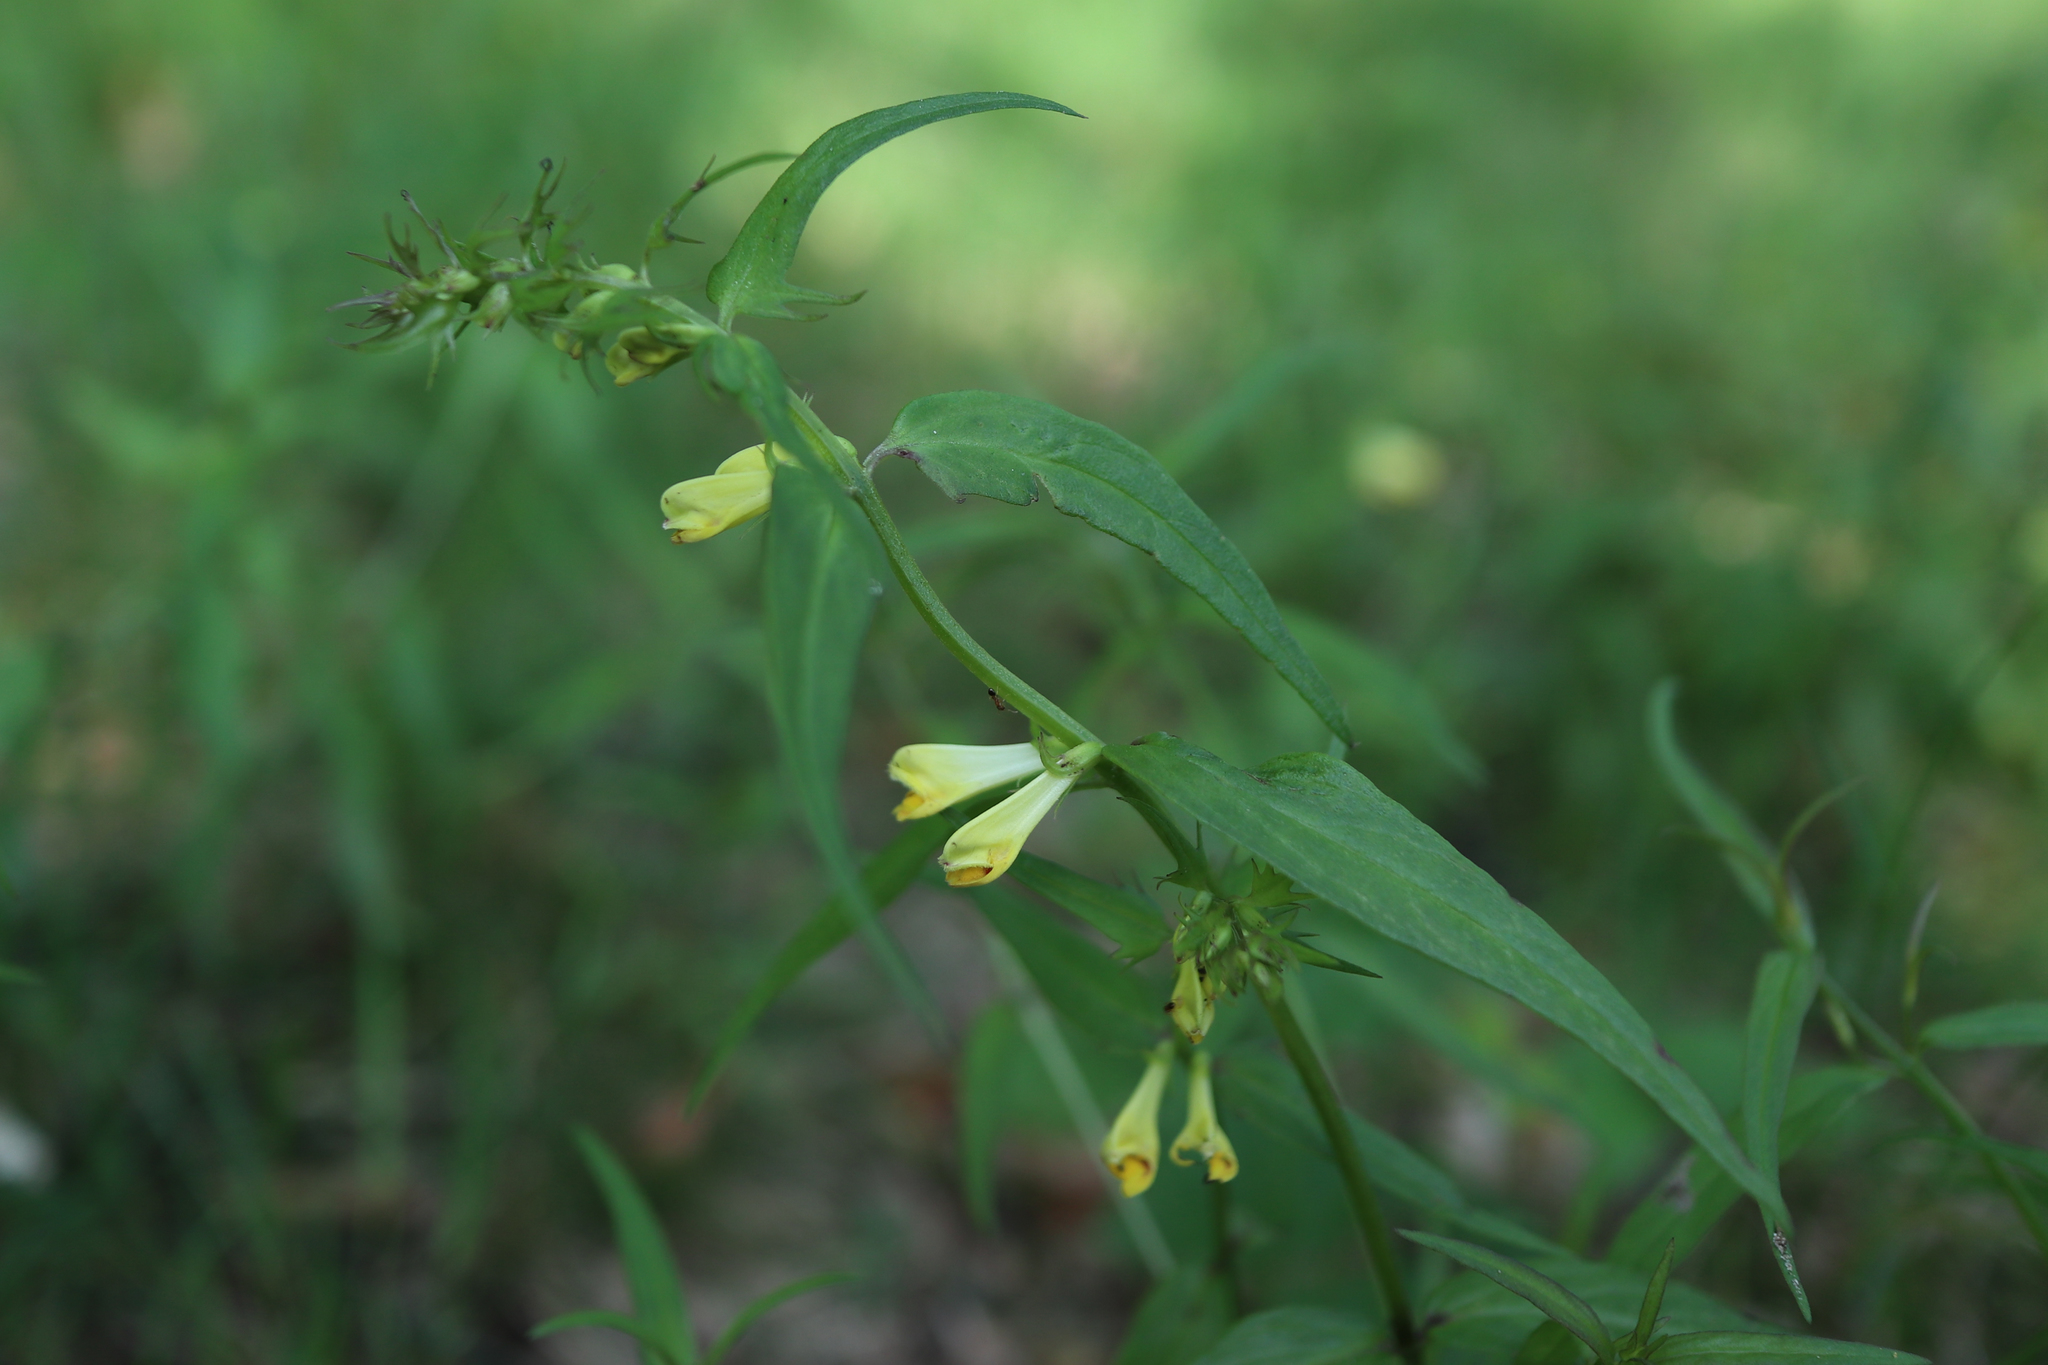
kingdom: Plantae
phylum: Tracheophyta
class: Magnoliopsida
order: Lamiales
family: Orobanchaceae
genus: Melampyrum
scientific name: Melampyrum pratense
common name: Common cow-wheat
